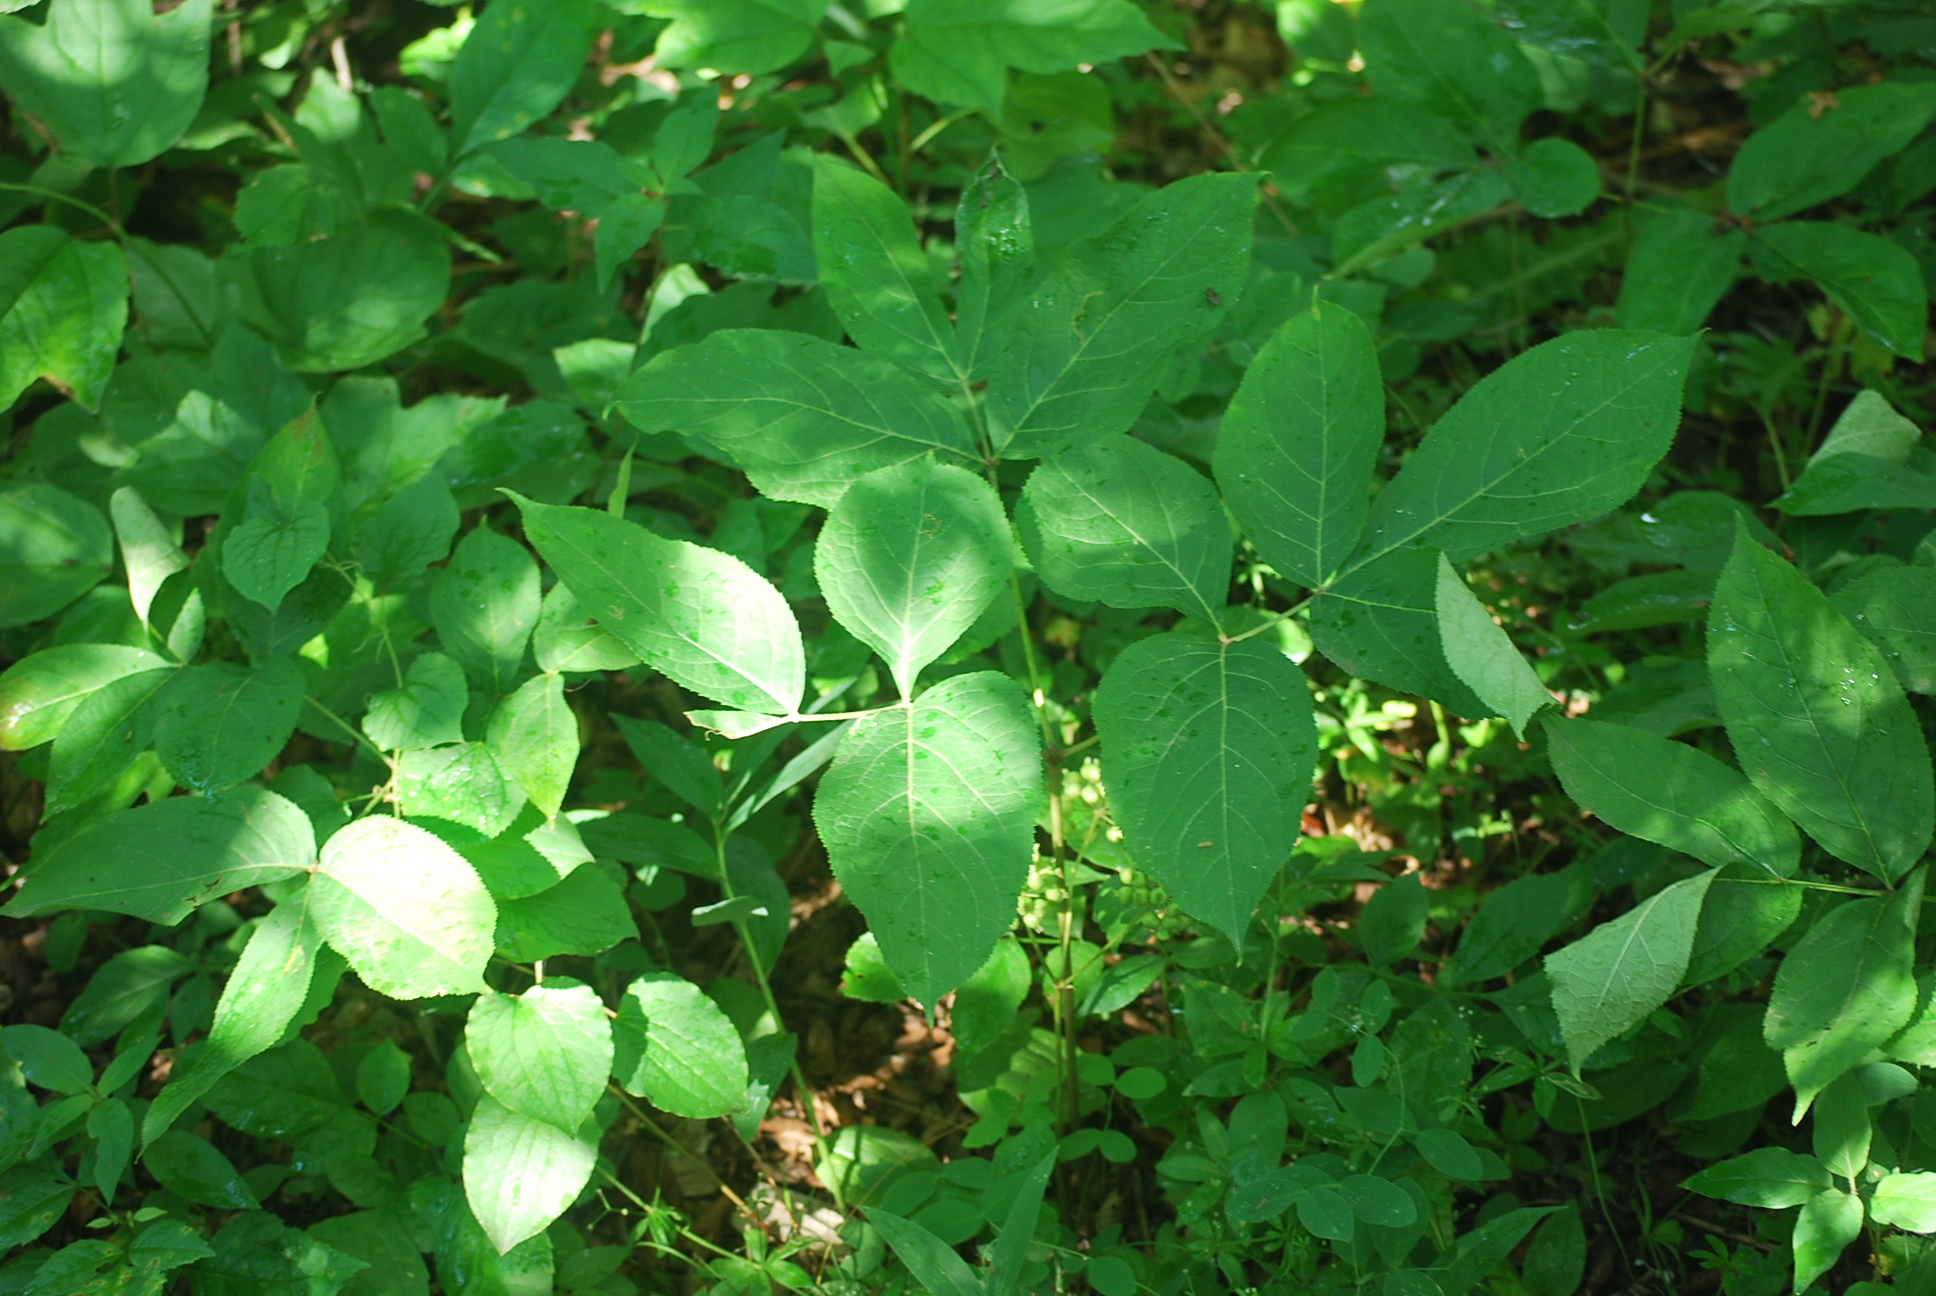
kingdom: Plantae
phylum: Tracheophyta
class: Magnoliopsida
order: Apiales
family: Araliaceae
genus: Aralia
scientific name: Aralia nudicaulis
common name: Wild sarsaparilla
